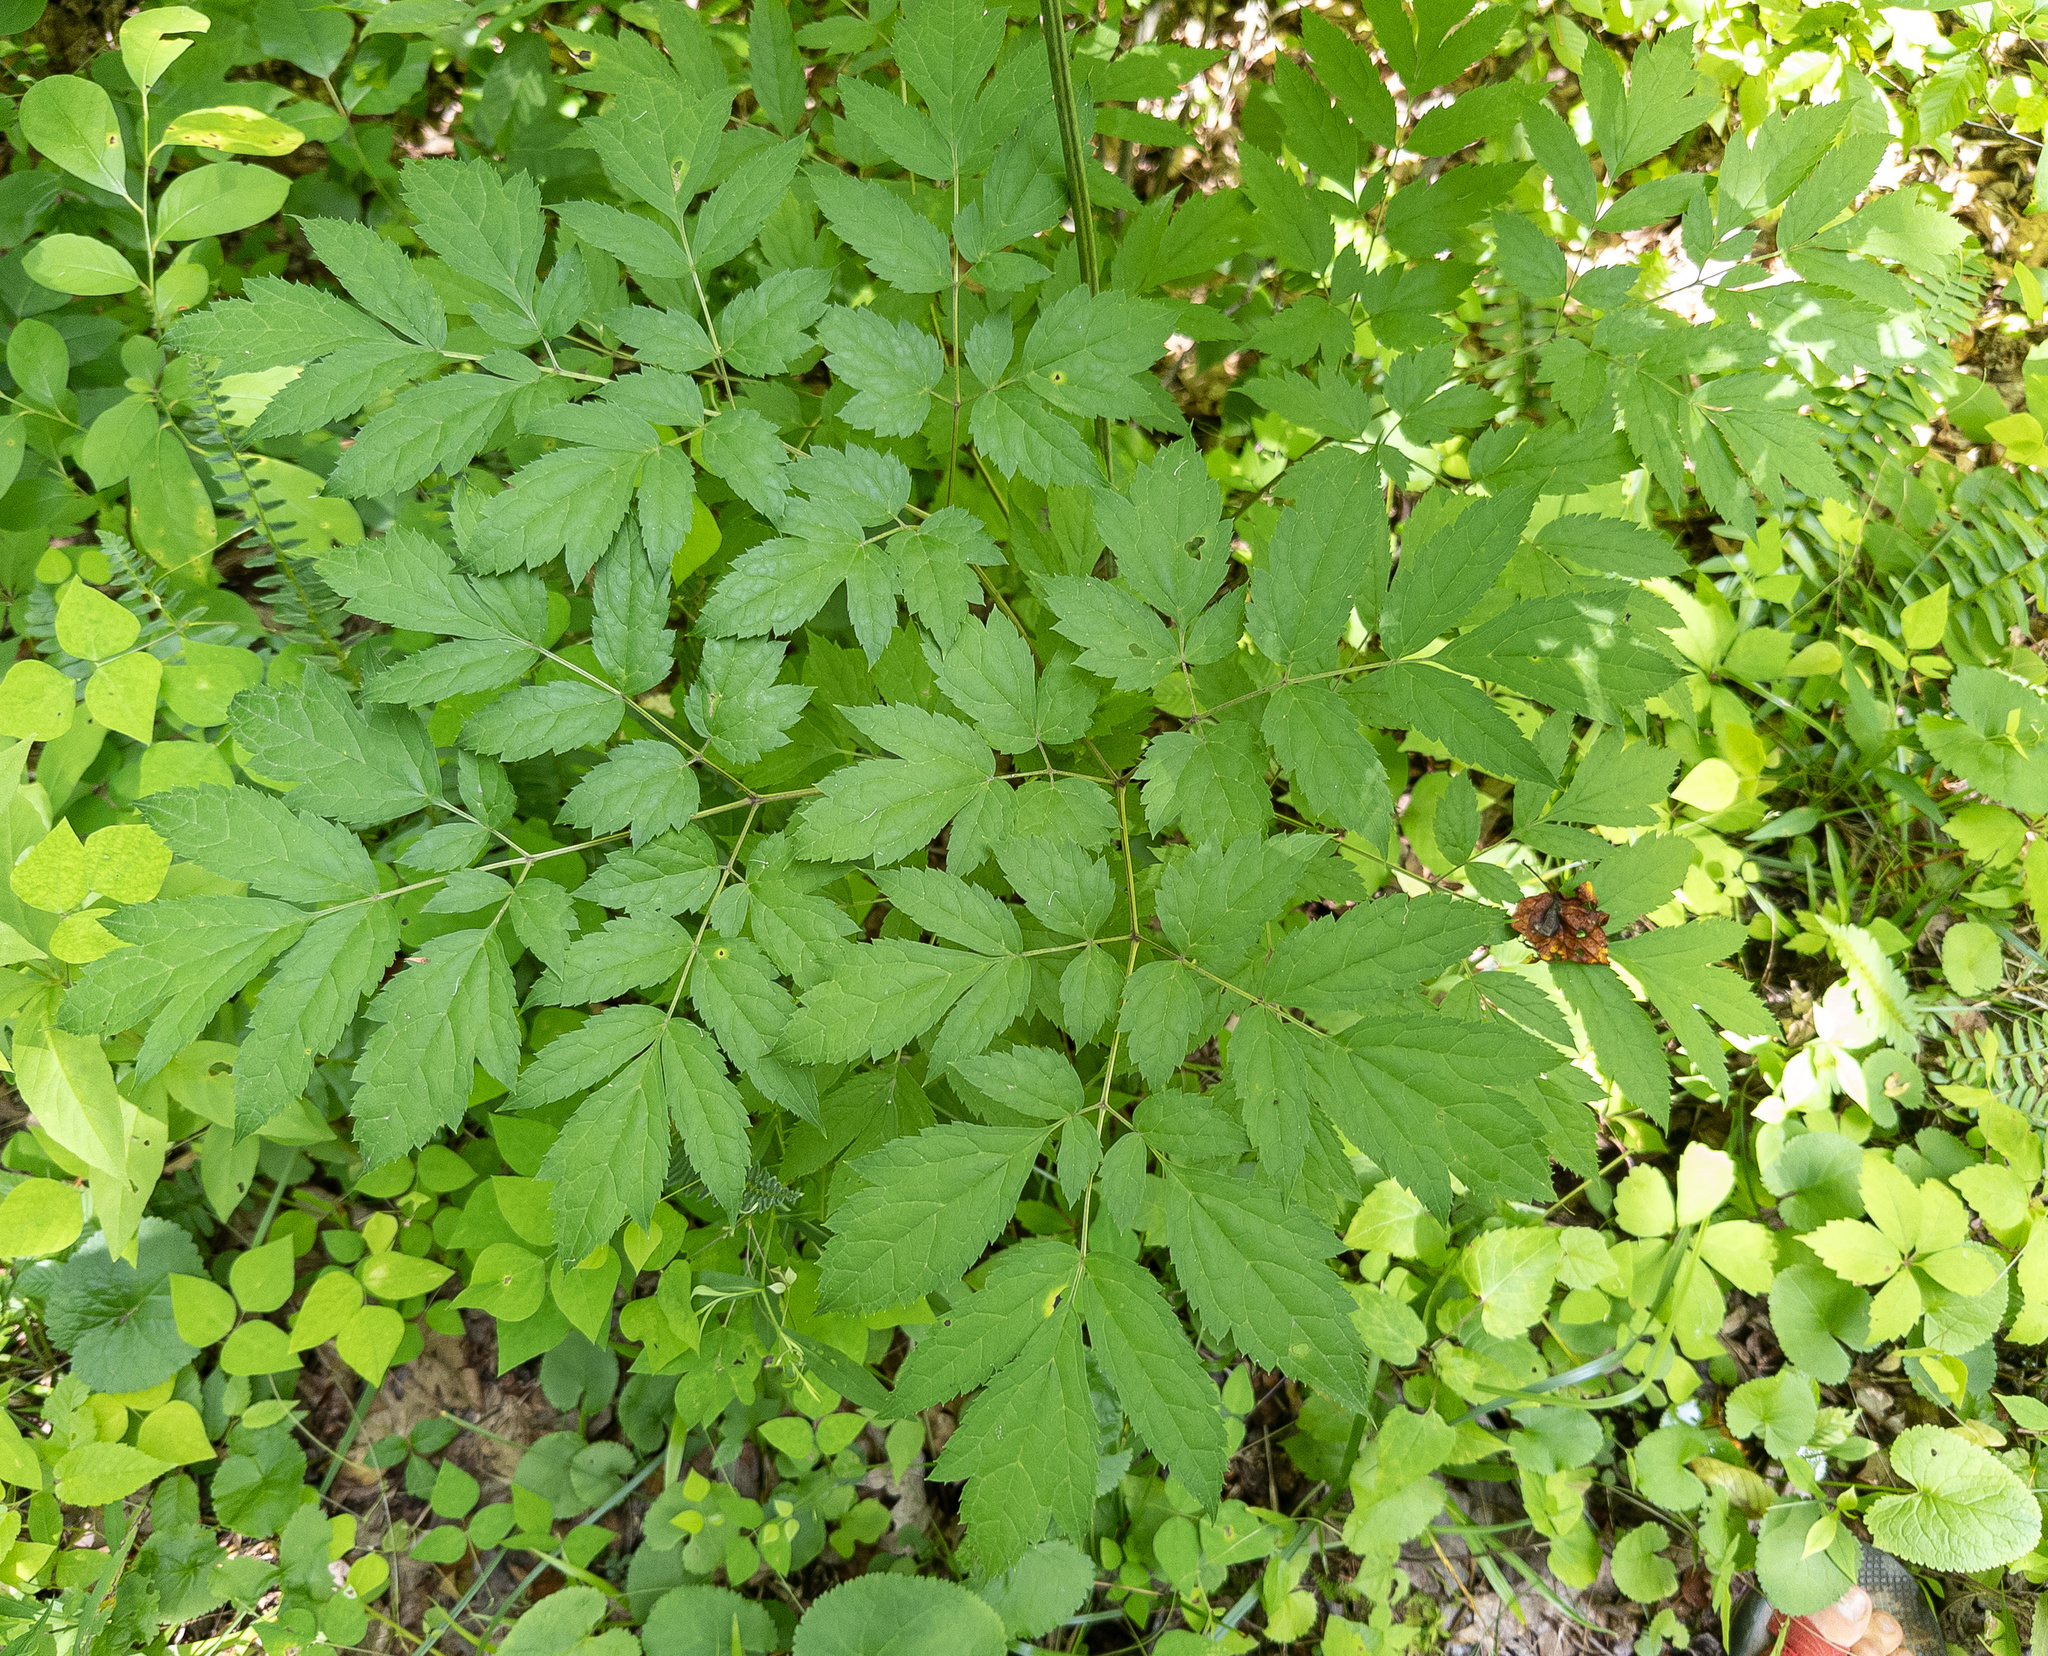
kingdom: Plantae
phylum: Tracheophyta
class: Magnoliopsida
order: Ranunculales
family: Ranunculaceae
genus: Actaea
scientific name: Actaea racemosa
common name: Black cohosh
